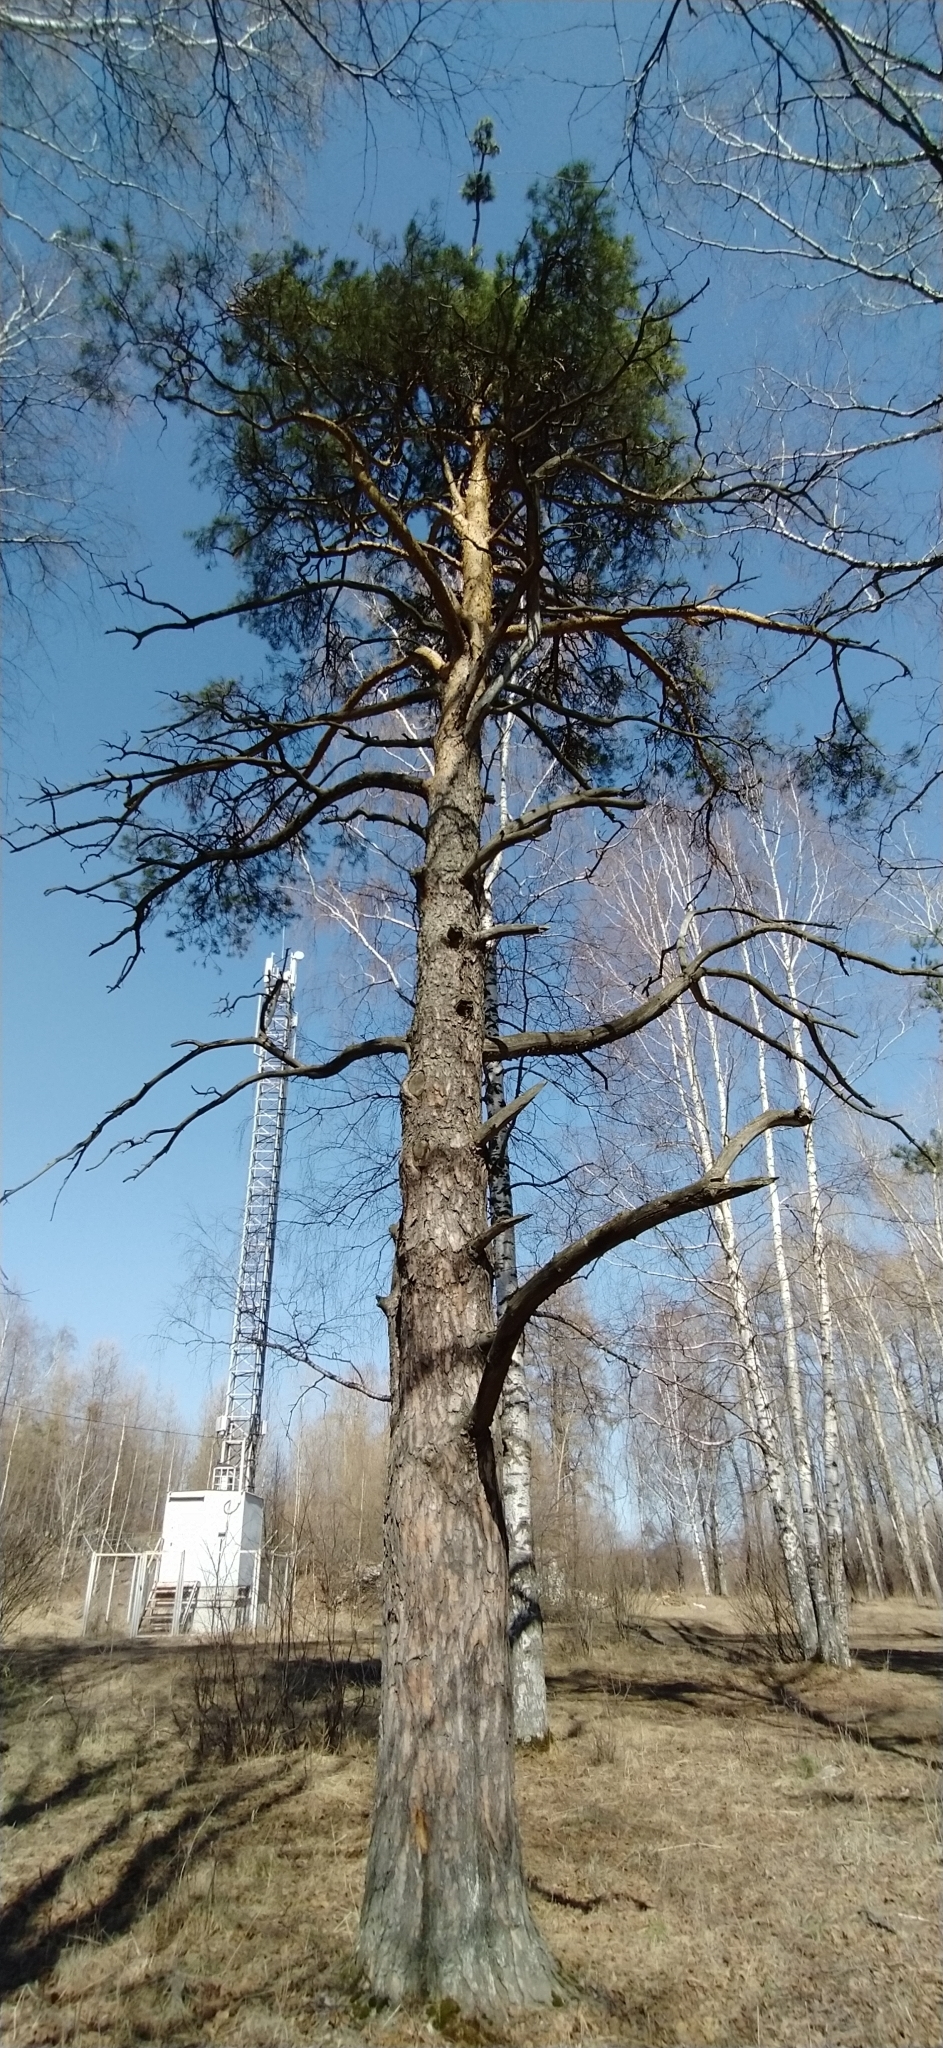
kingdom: Plantae
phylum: Tracheophyta
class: Pinopsida
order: Pinales
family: Pinaceae
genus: Pinus
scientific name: Pinus sylvestris
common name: Scots pine
